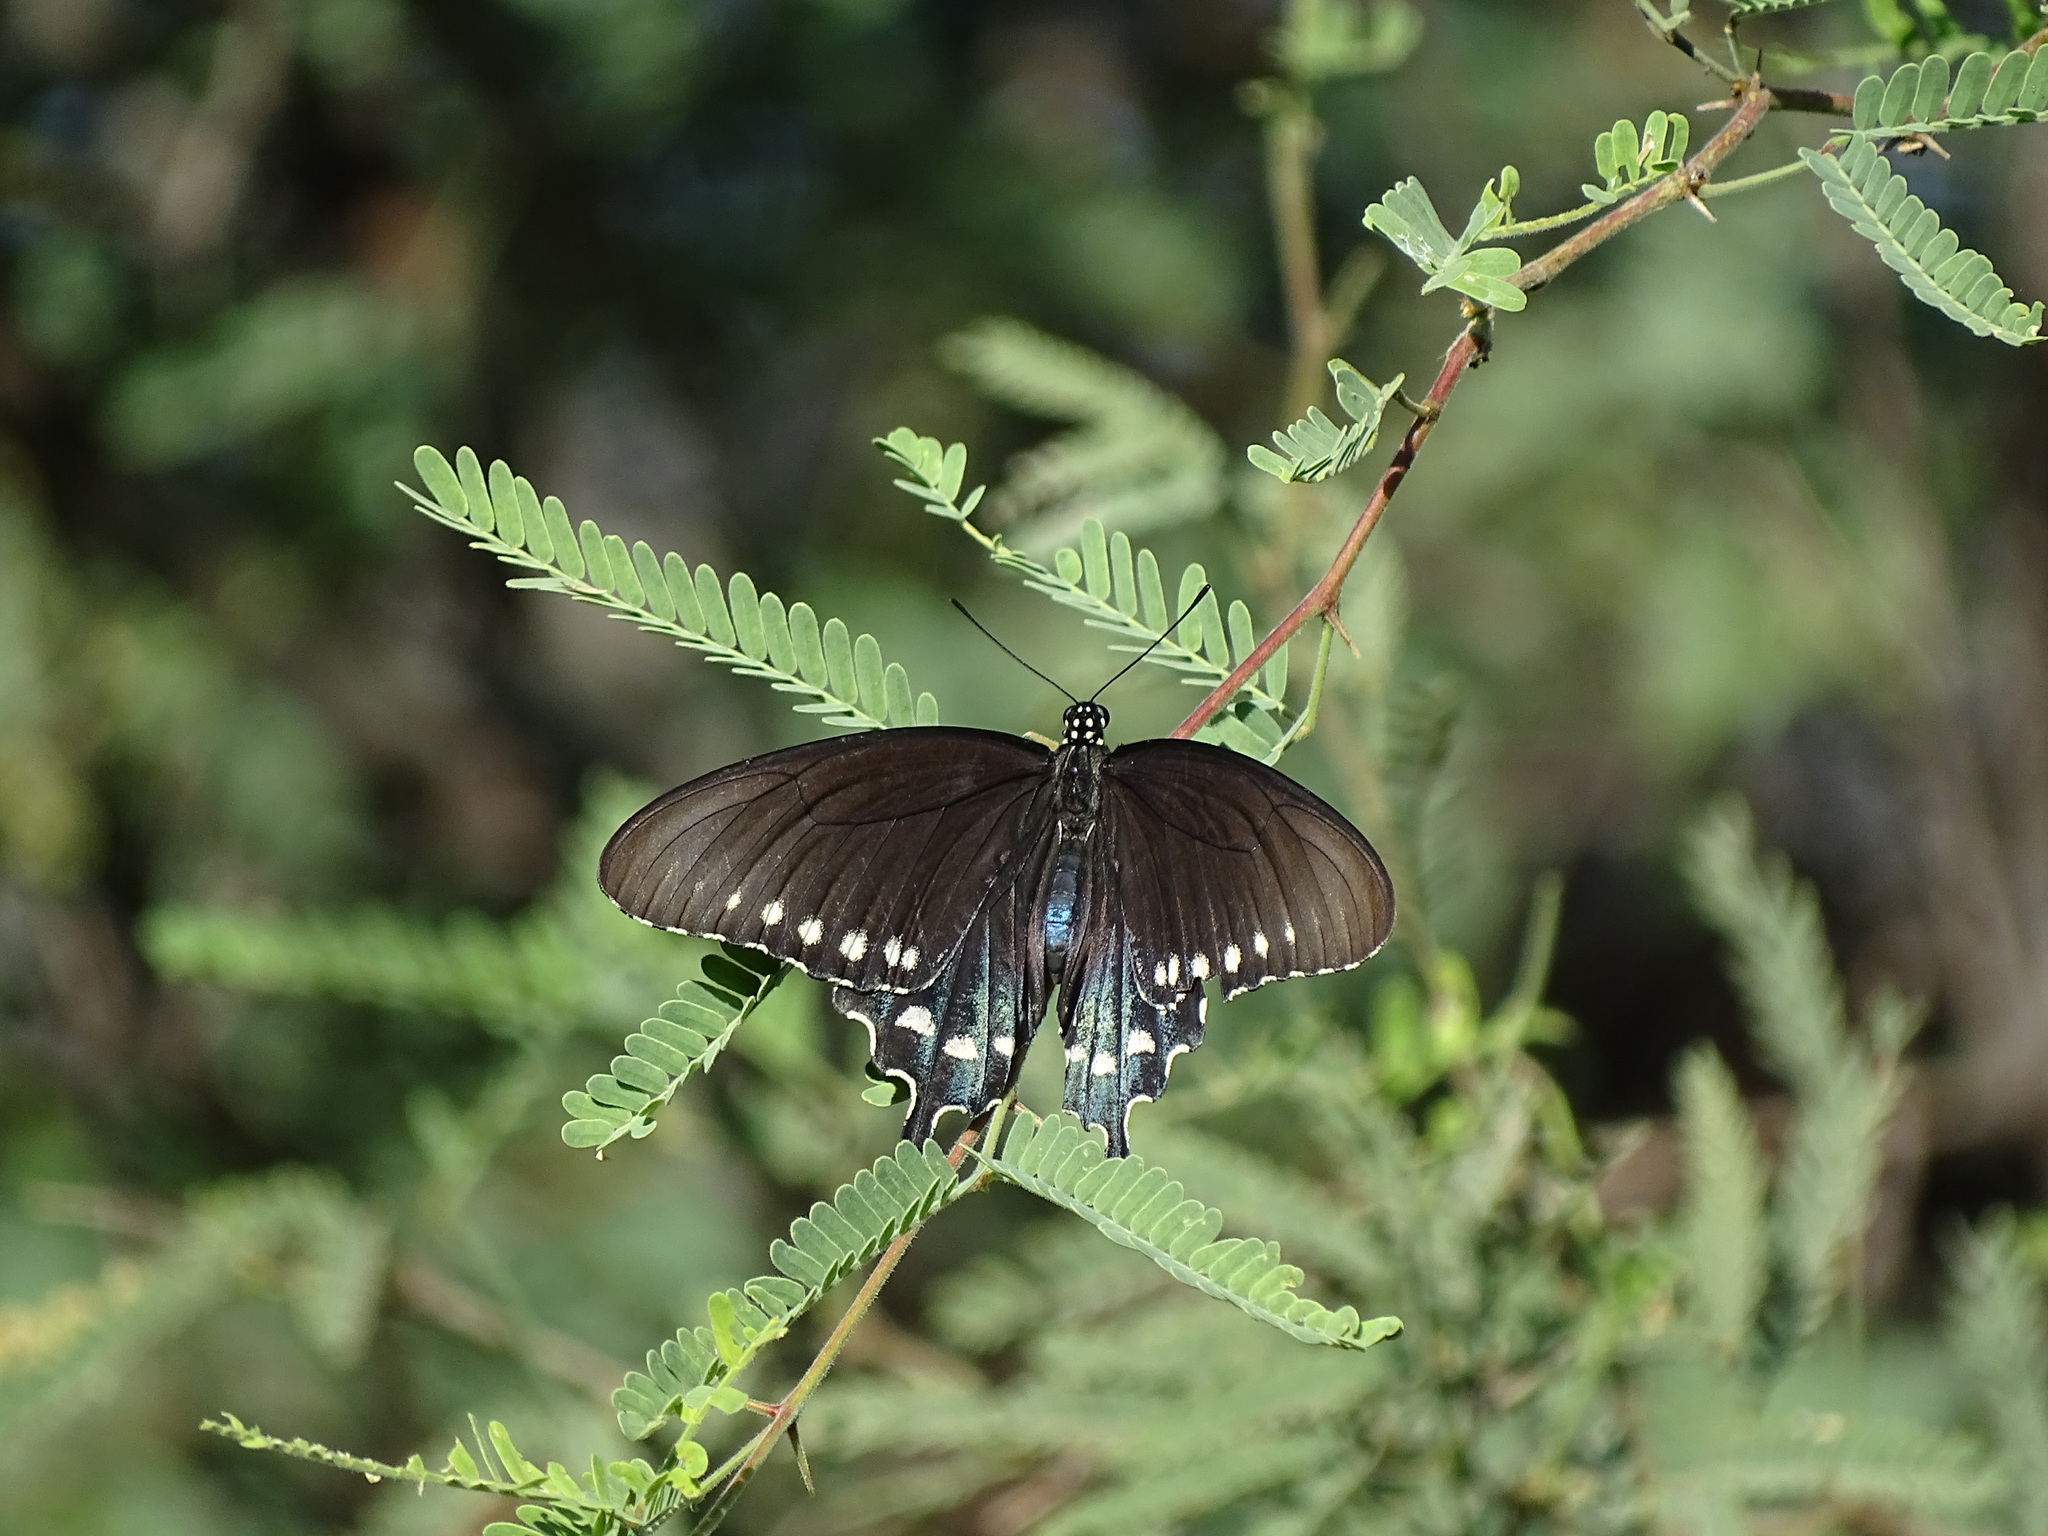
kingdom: Animalia
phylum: Arthropoda
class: Insecta
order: Lepidoptera
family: Papilionidae
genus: Battus
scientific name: Battus philenor
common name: Pipevine swallowtail
